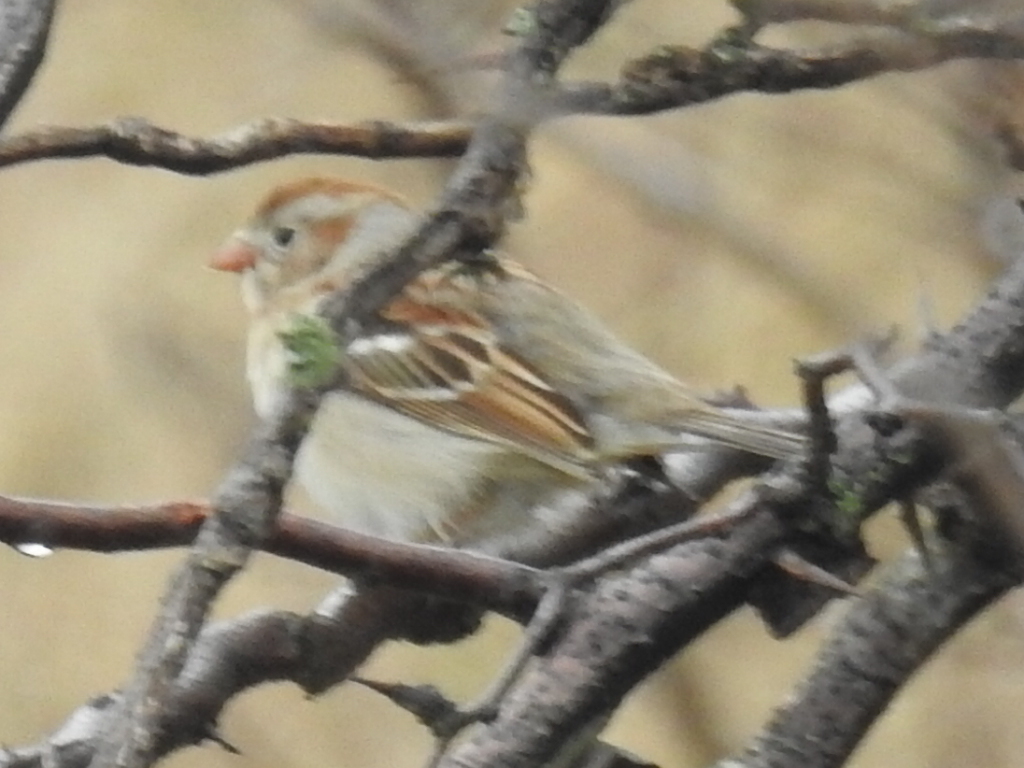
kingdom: Animalia
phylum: Chordata
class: Aves
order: Passeriformes
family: Passerellidae
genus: Spizella
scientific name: Spizella pusilla
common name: Field sparrow
